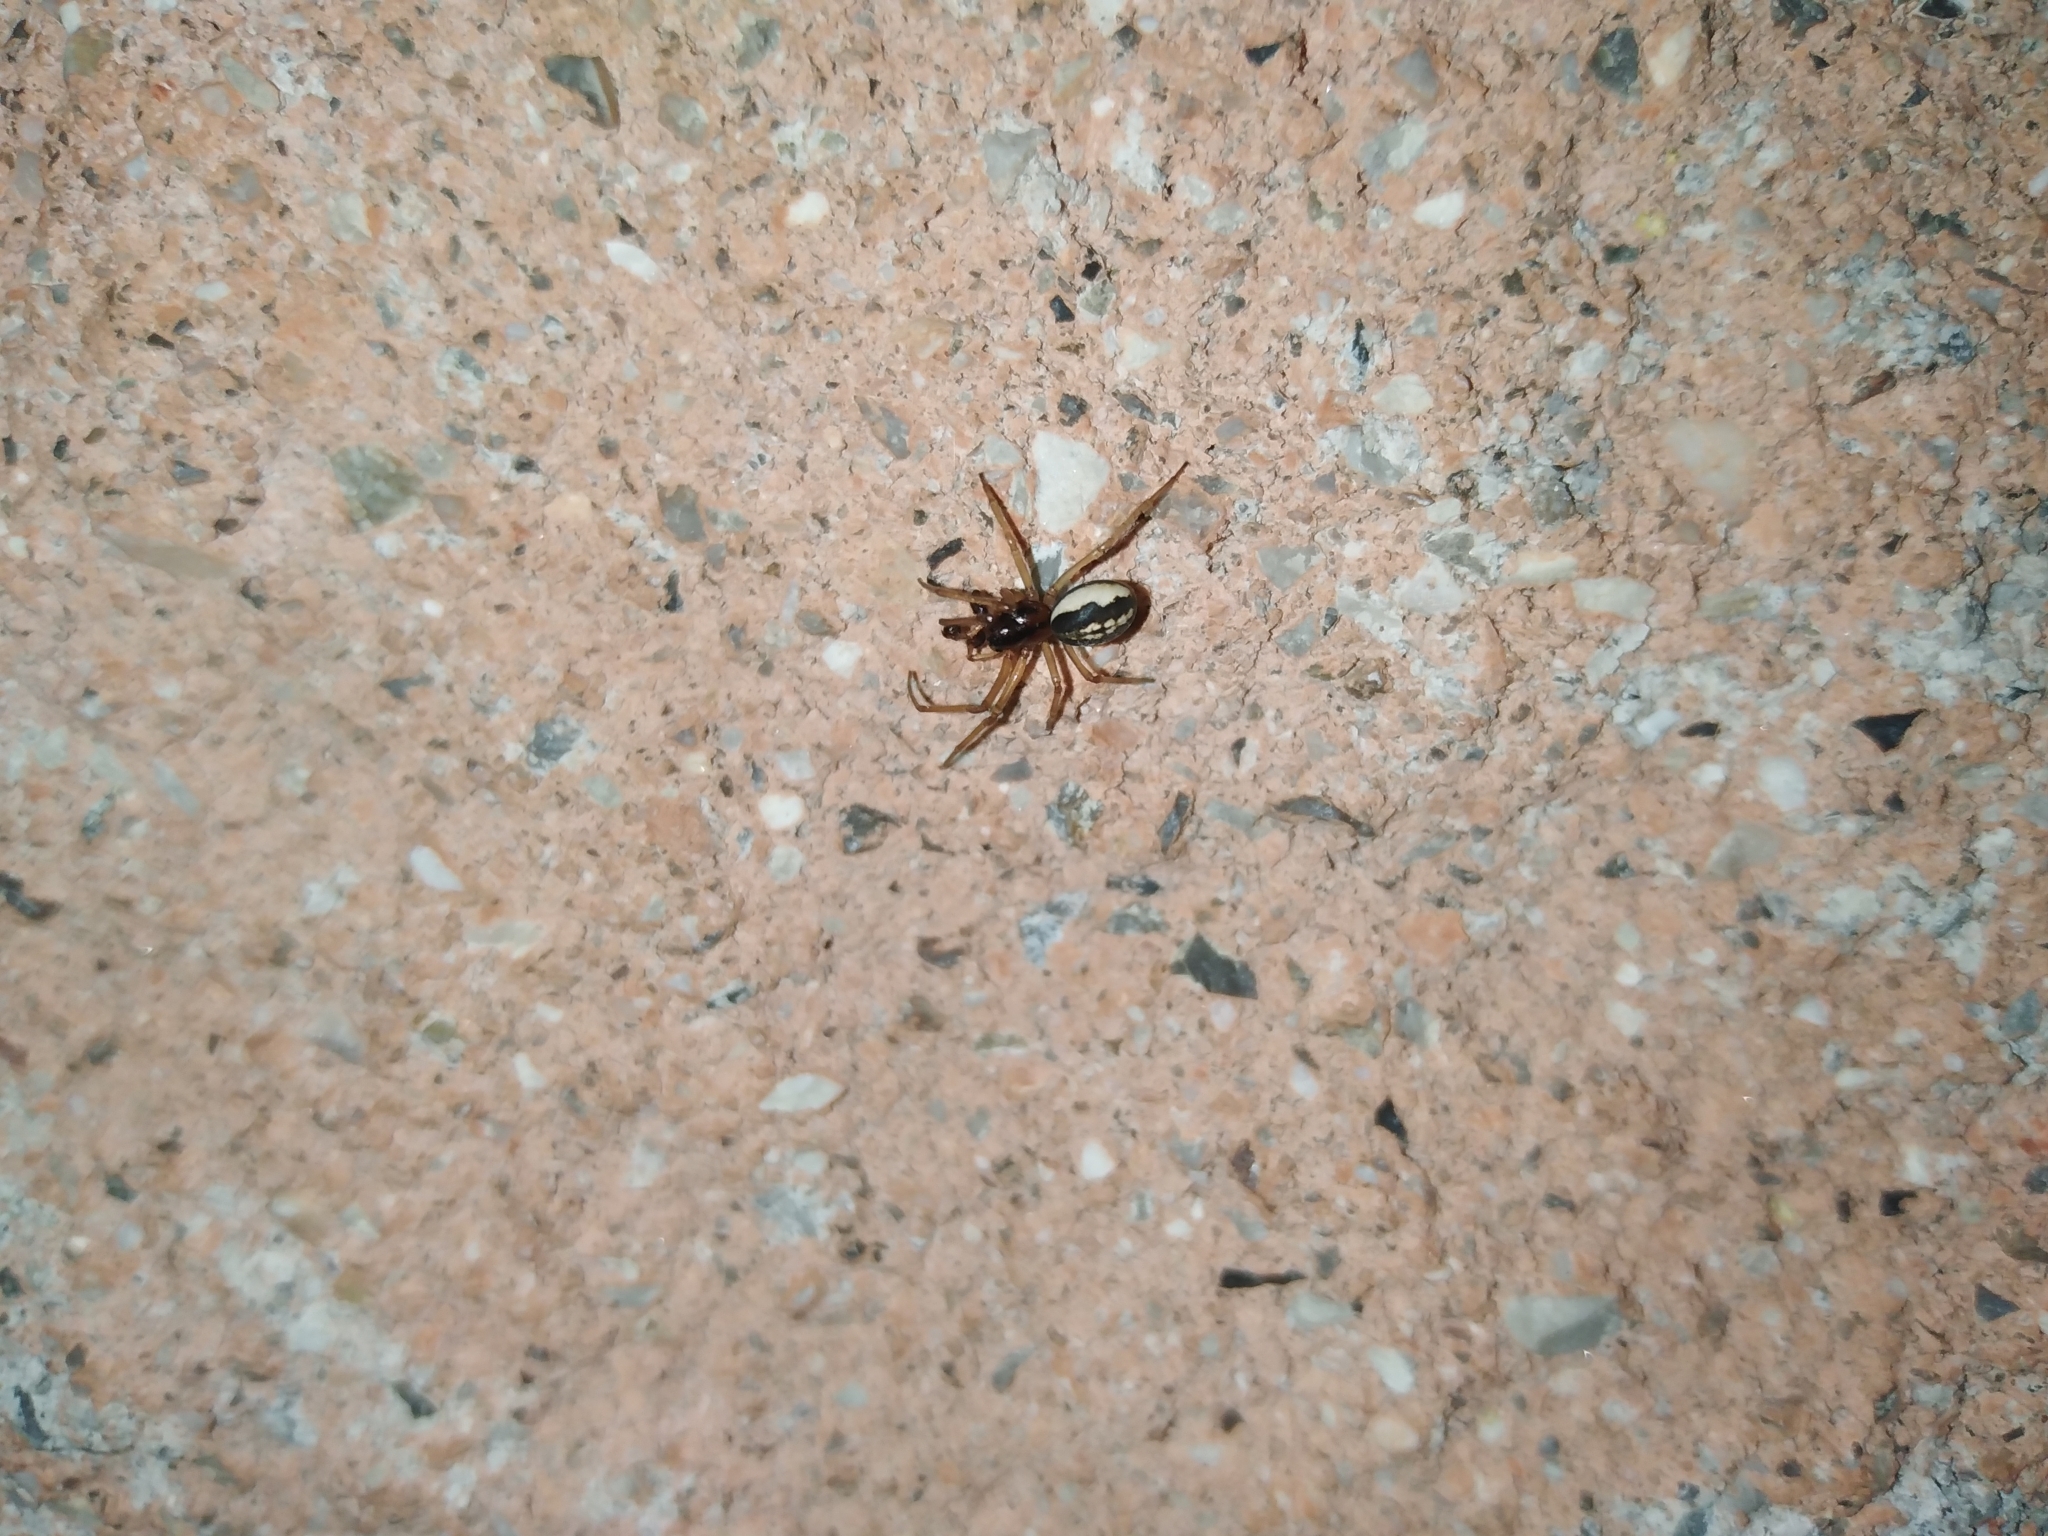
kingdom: Animalia
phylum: Arthropoda
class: Arachnida
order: Araneae
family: Tetragnathidae
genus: Pachygnatha
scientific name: Pachygnatha degeeri
